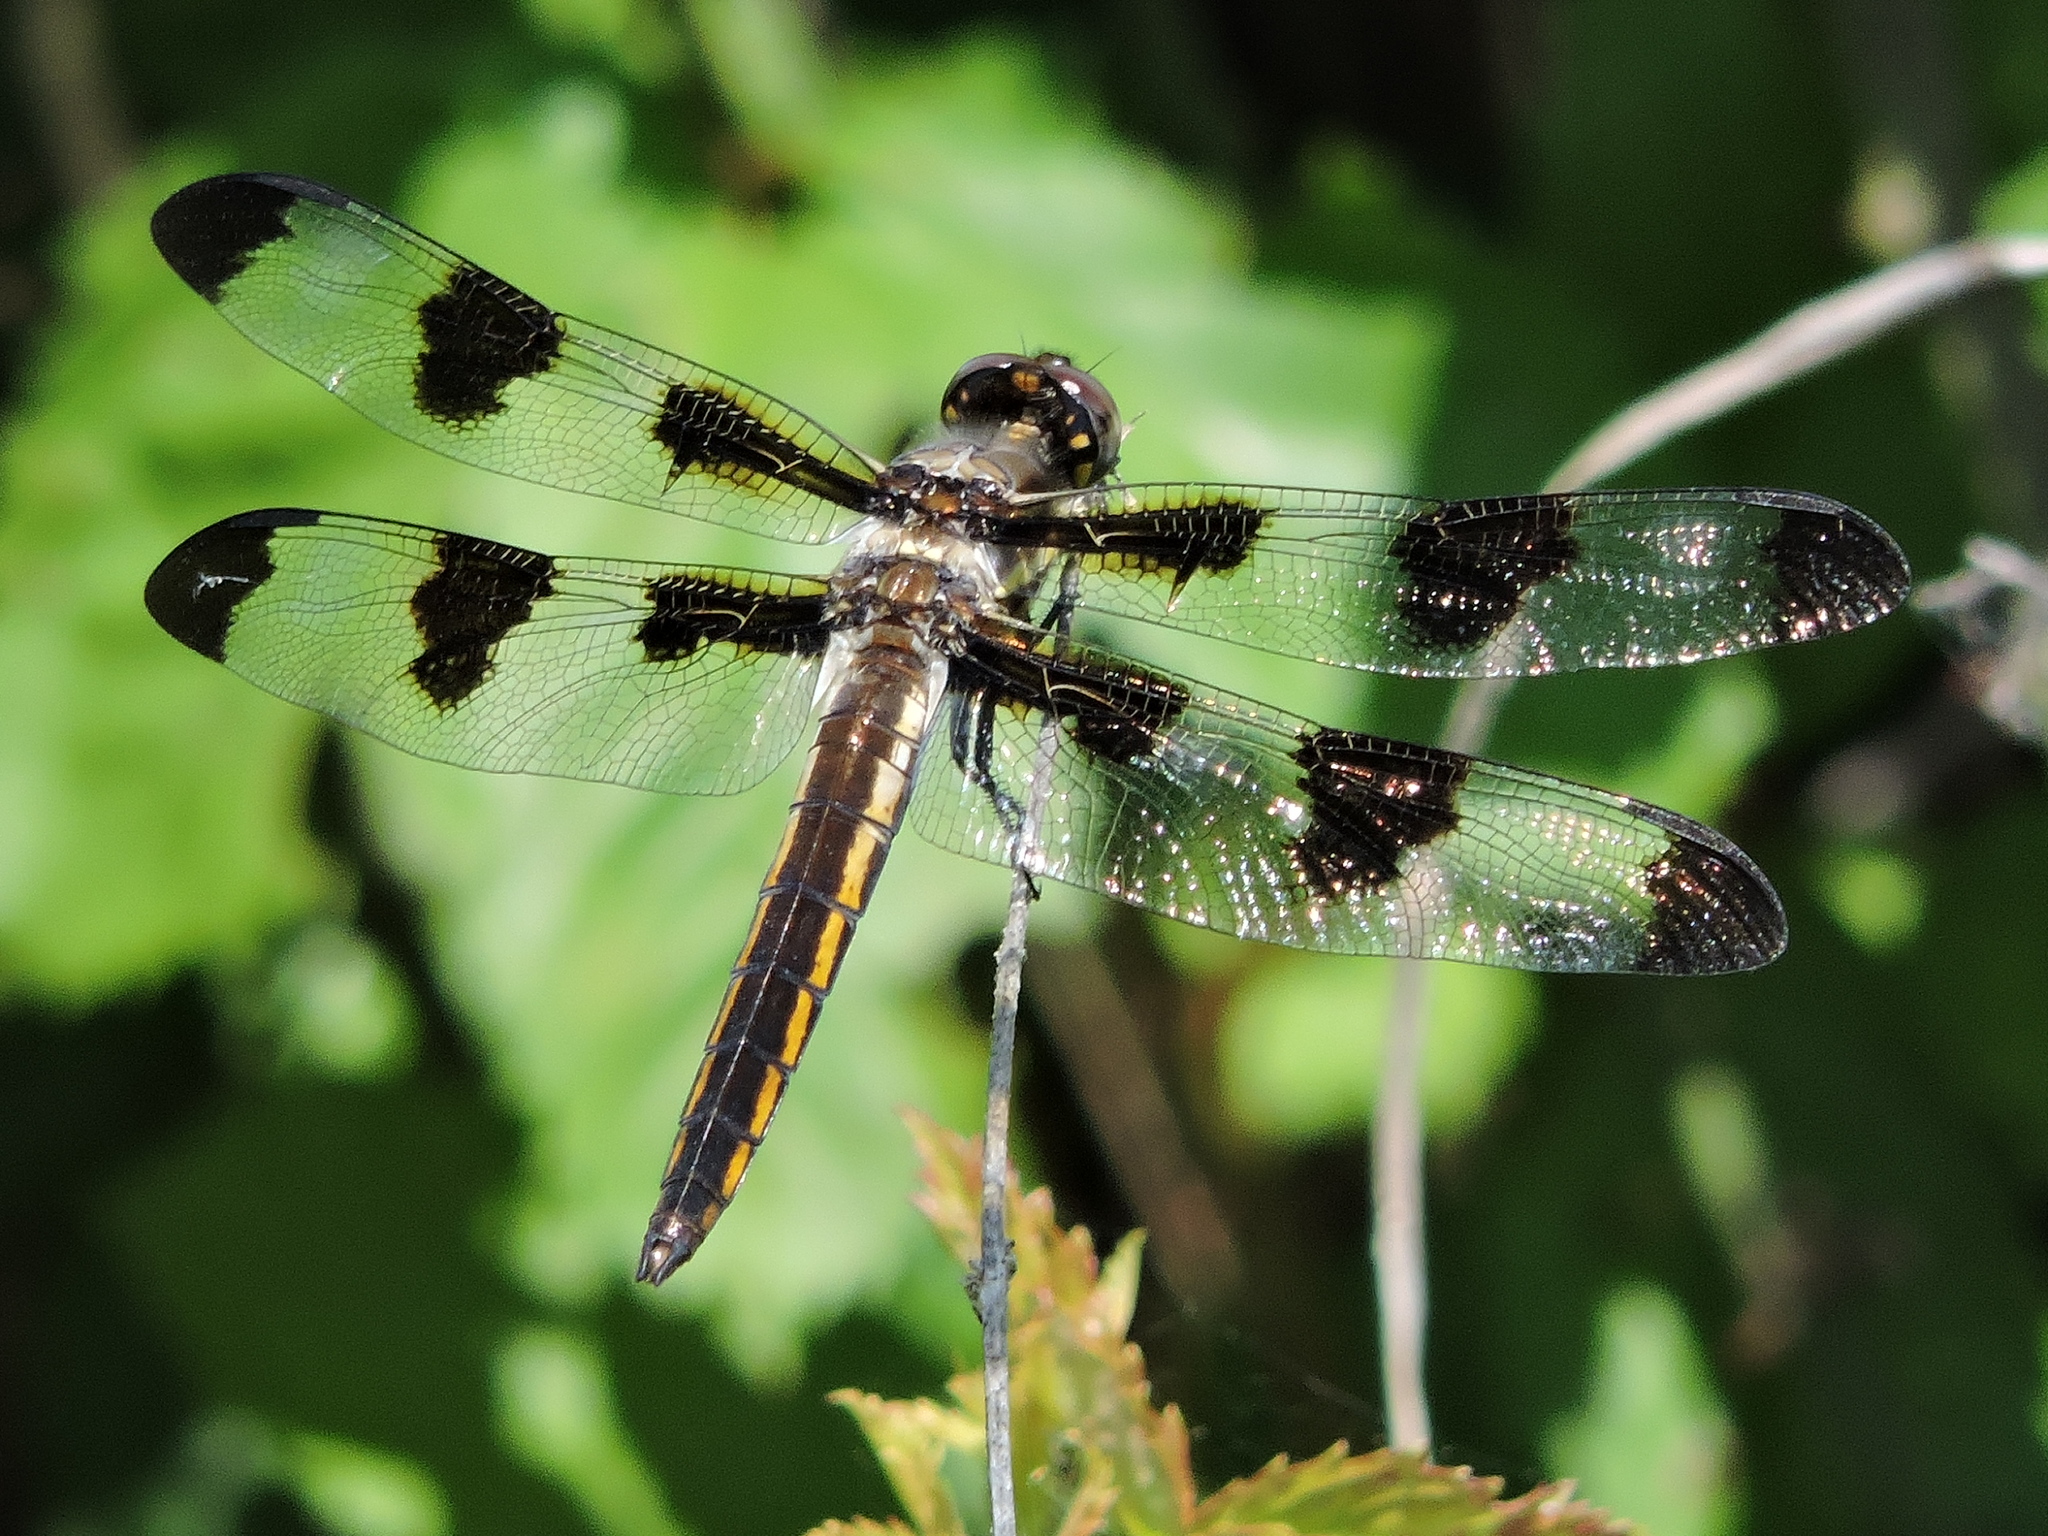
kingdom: Animalia
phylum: Arthropoda
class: Insecta
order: Odonata
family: Libellulidae
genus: Libellula
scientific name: Libellula pulchella
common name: Twelve-spotted skimmer
